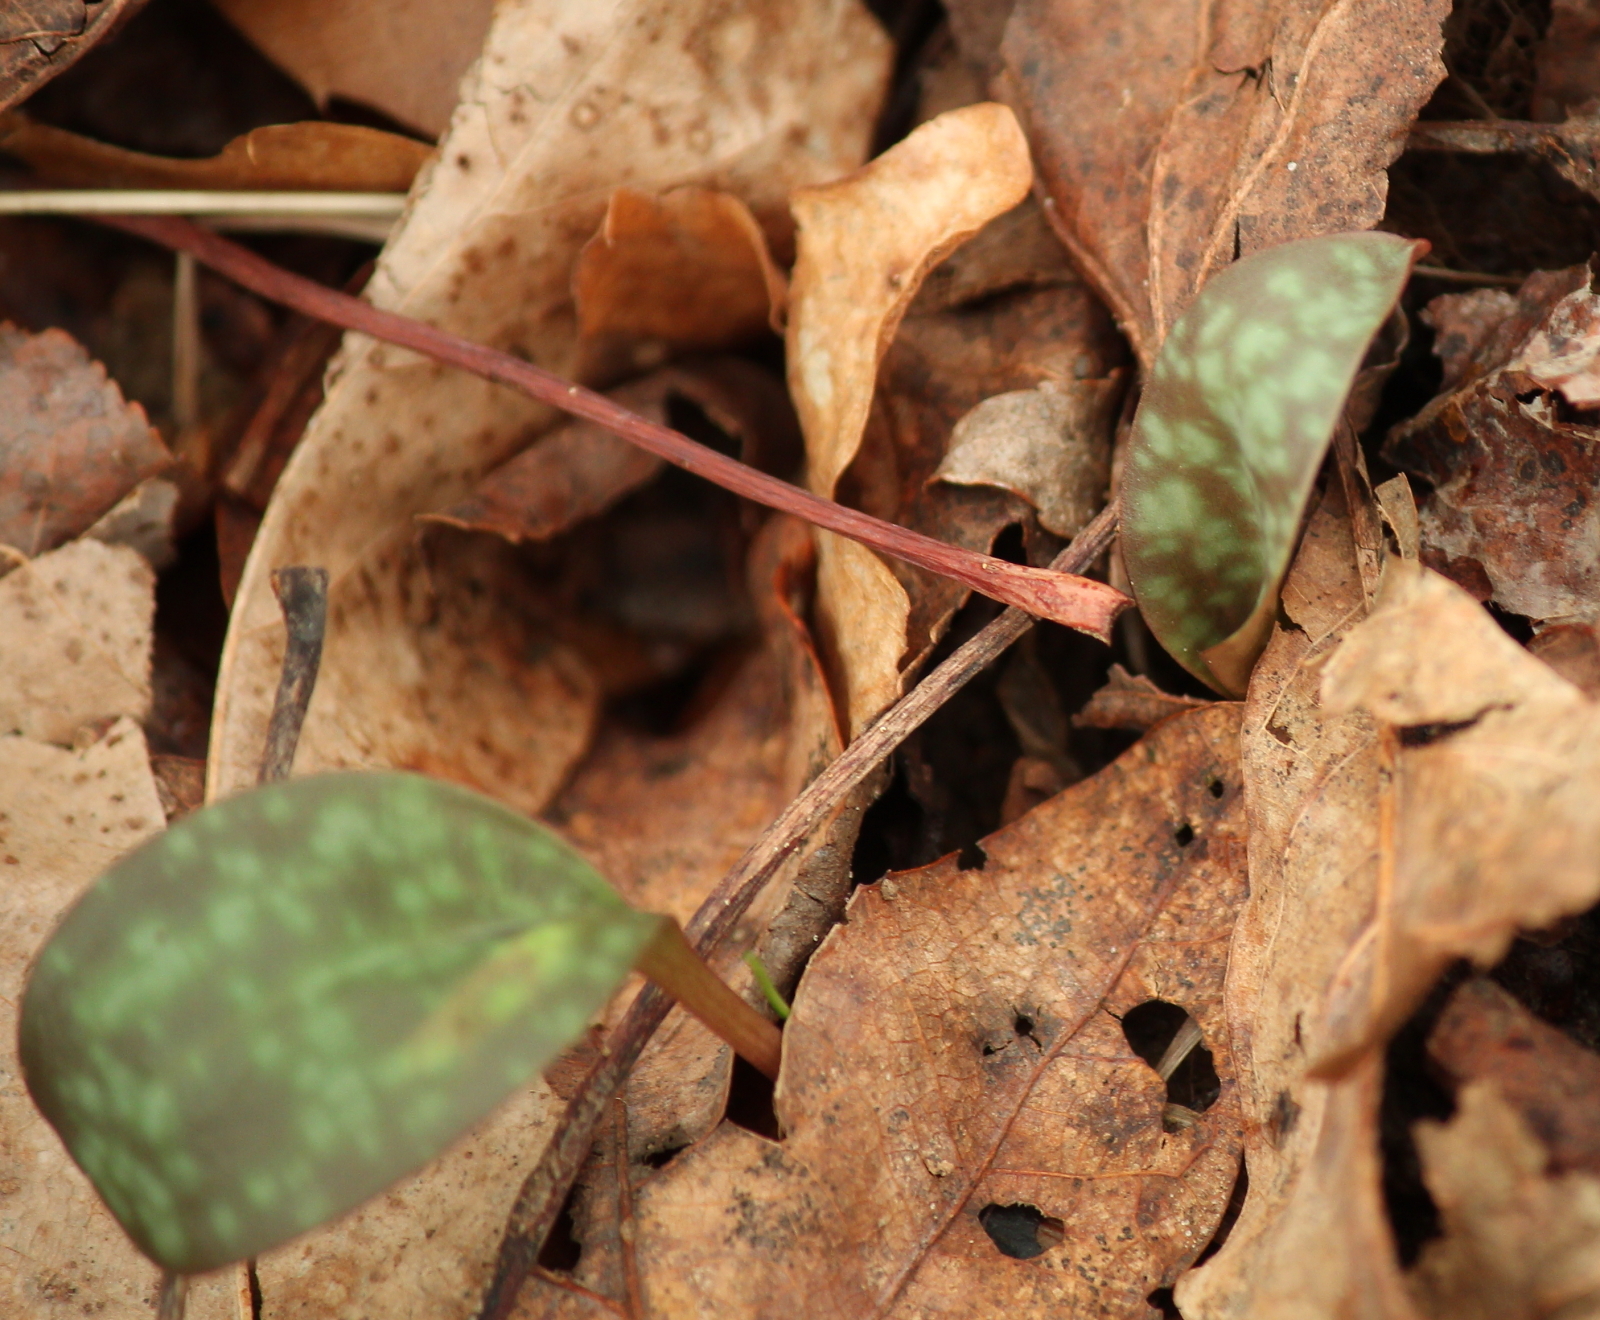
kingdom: Plantae
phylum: Tracheophyta
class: Liliopsida
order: Liliales
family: Liliaceae
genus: Erythronium
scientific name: Erythronium rostratum
